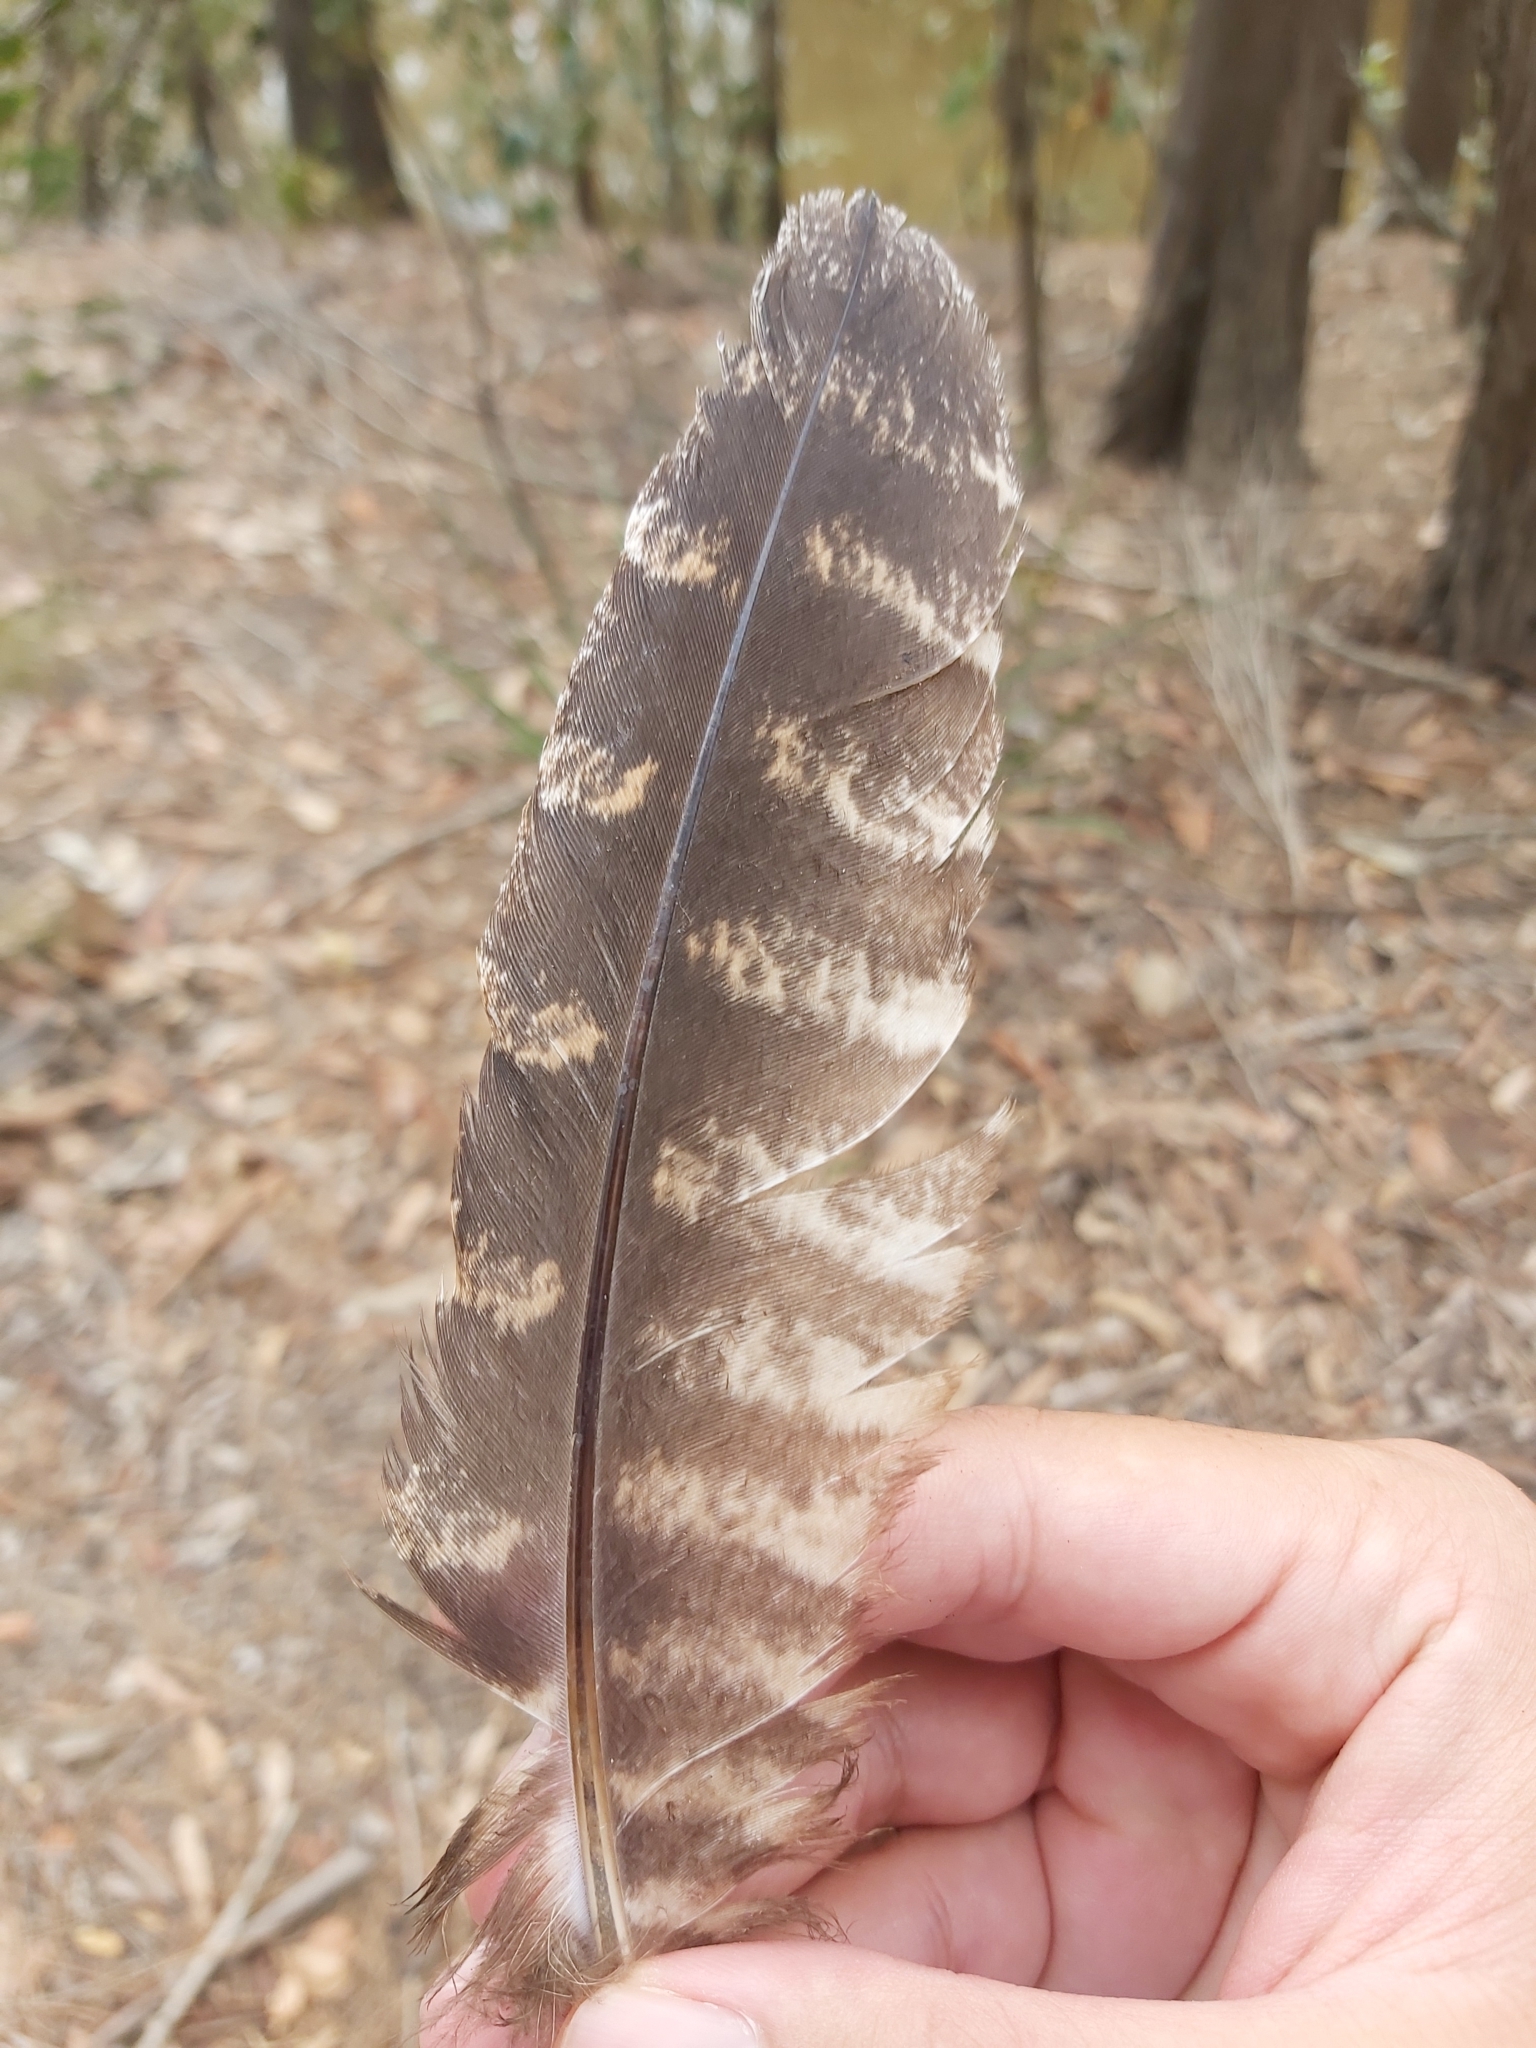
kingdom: Animalia
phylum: Chordata
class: Aves
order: Caprimulgiformes
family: Podargidae
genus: Podargus
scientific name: Podargus strigoides
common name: Tawny frogmouth
